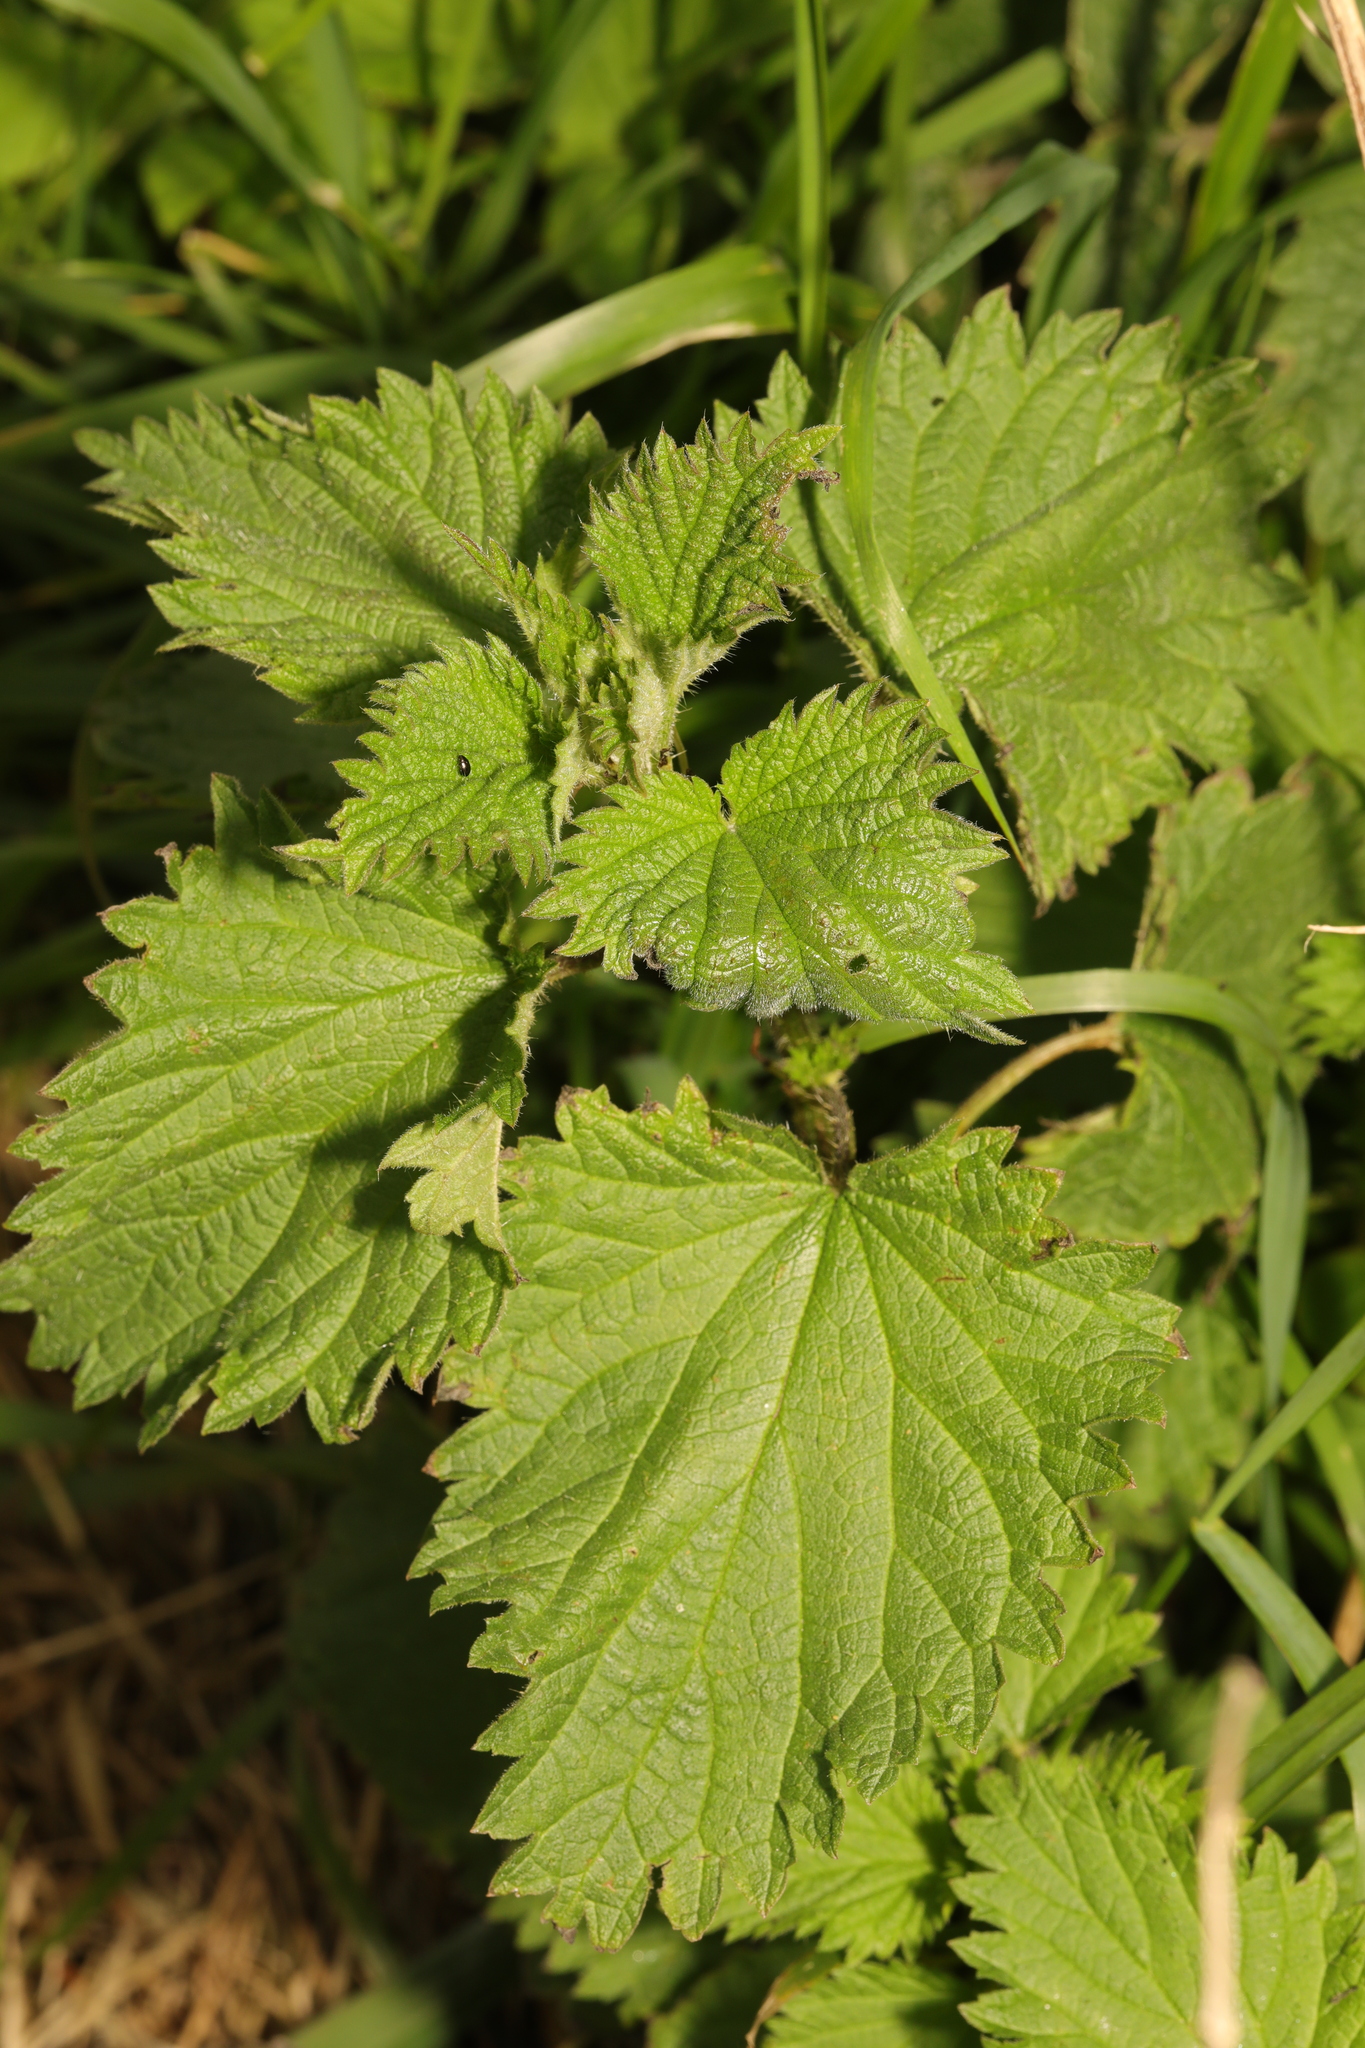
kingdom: Plantae
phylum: Tracheophyta
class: Magnoliopsida
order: Rosales
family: Urticaceae
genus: Urtica
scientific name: Urtica dioica
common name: Common nettle
